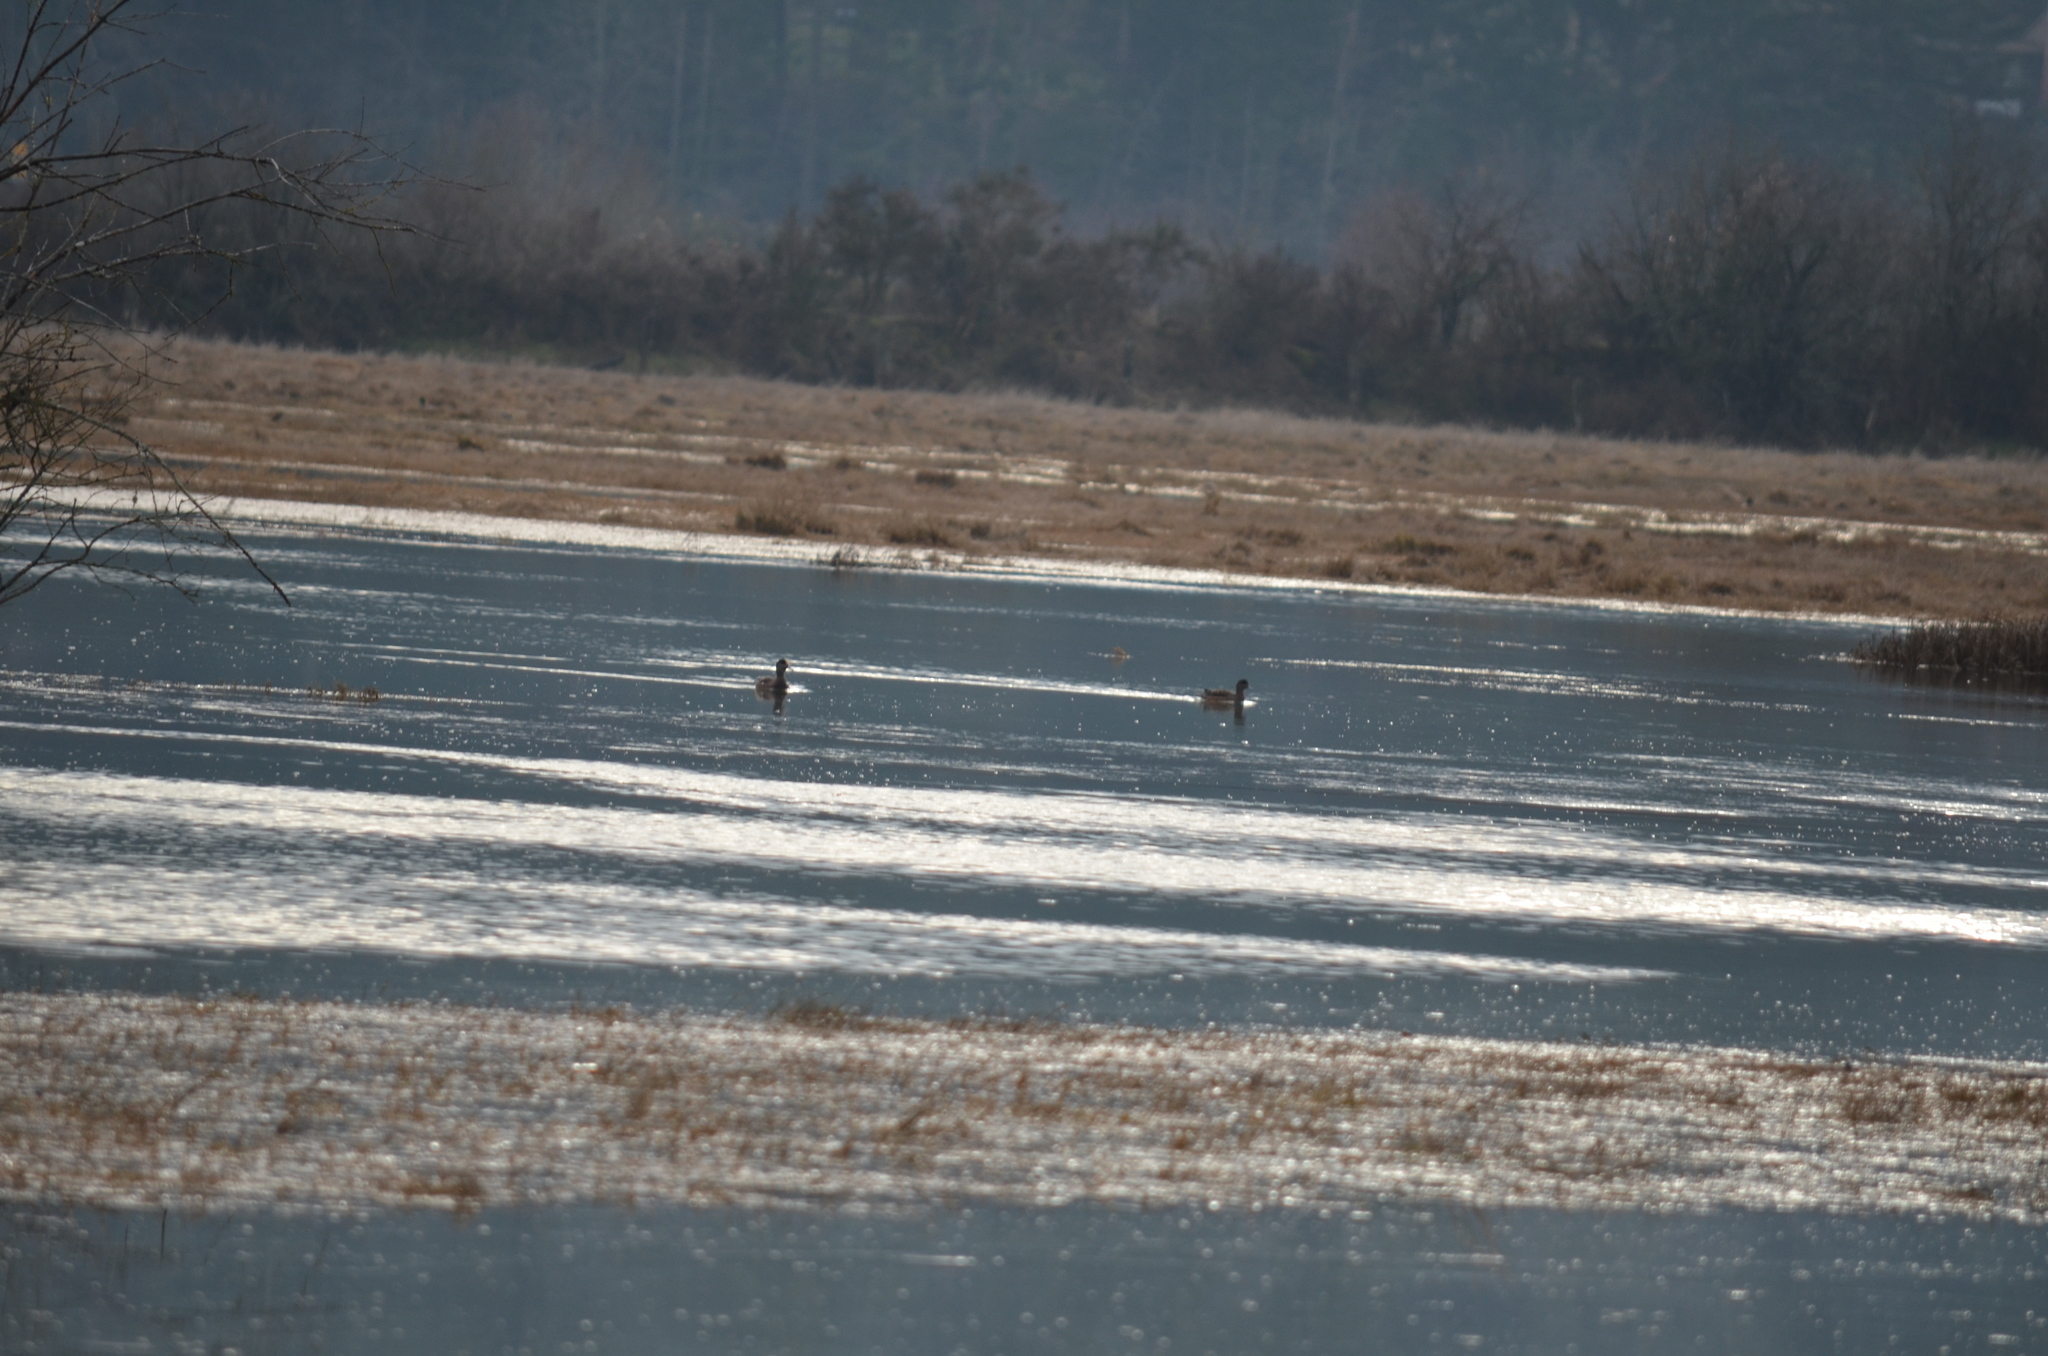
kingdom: Animalia
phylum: Chordata
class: Aves
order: Anseriformes
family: Anatidae
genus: Mareca
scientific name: Mareca americana
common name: American wigeon
